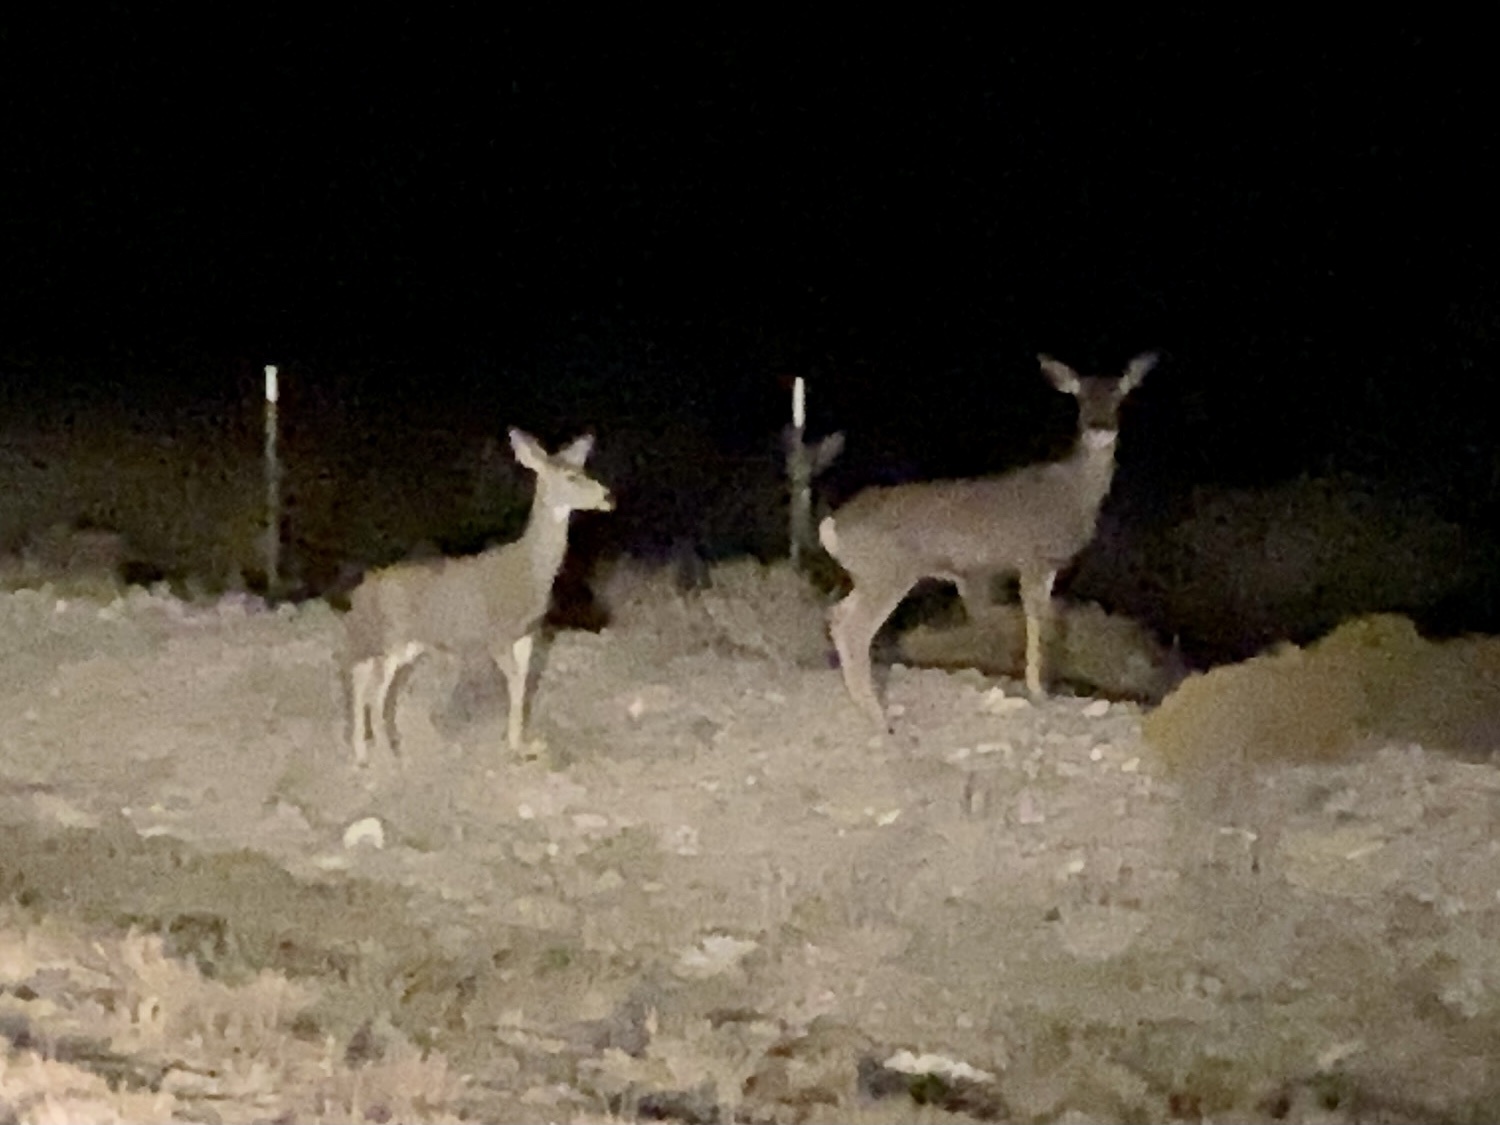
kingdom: Animalia
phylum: Chordata
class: Mammalia
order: Artiodactyla
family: Cervidae
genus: Odocoileus
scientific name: Odocoileus hemionus
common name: Mule deer
